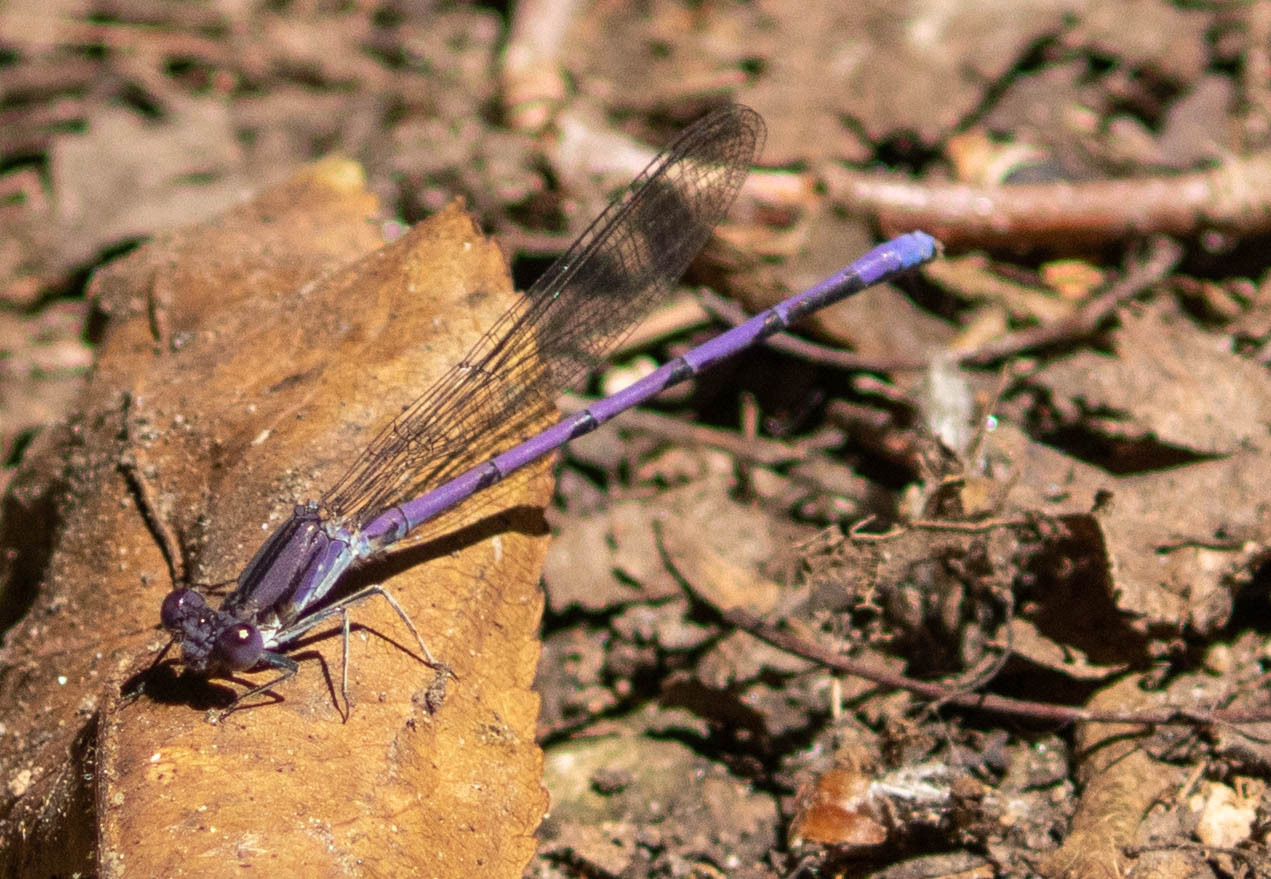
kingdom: Animalia
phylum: Arthropoda
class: Insecta
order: Odonata
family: Coenagrionidae
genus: Argia
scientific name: Argia fumipennis
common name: Variable dancer
